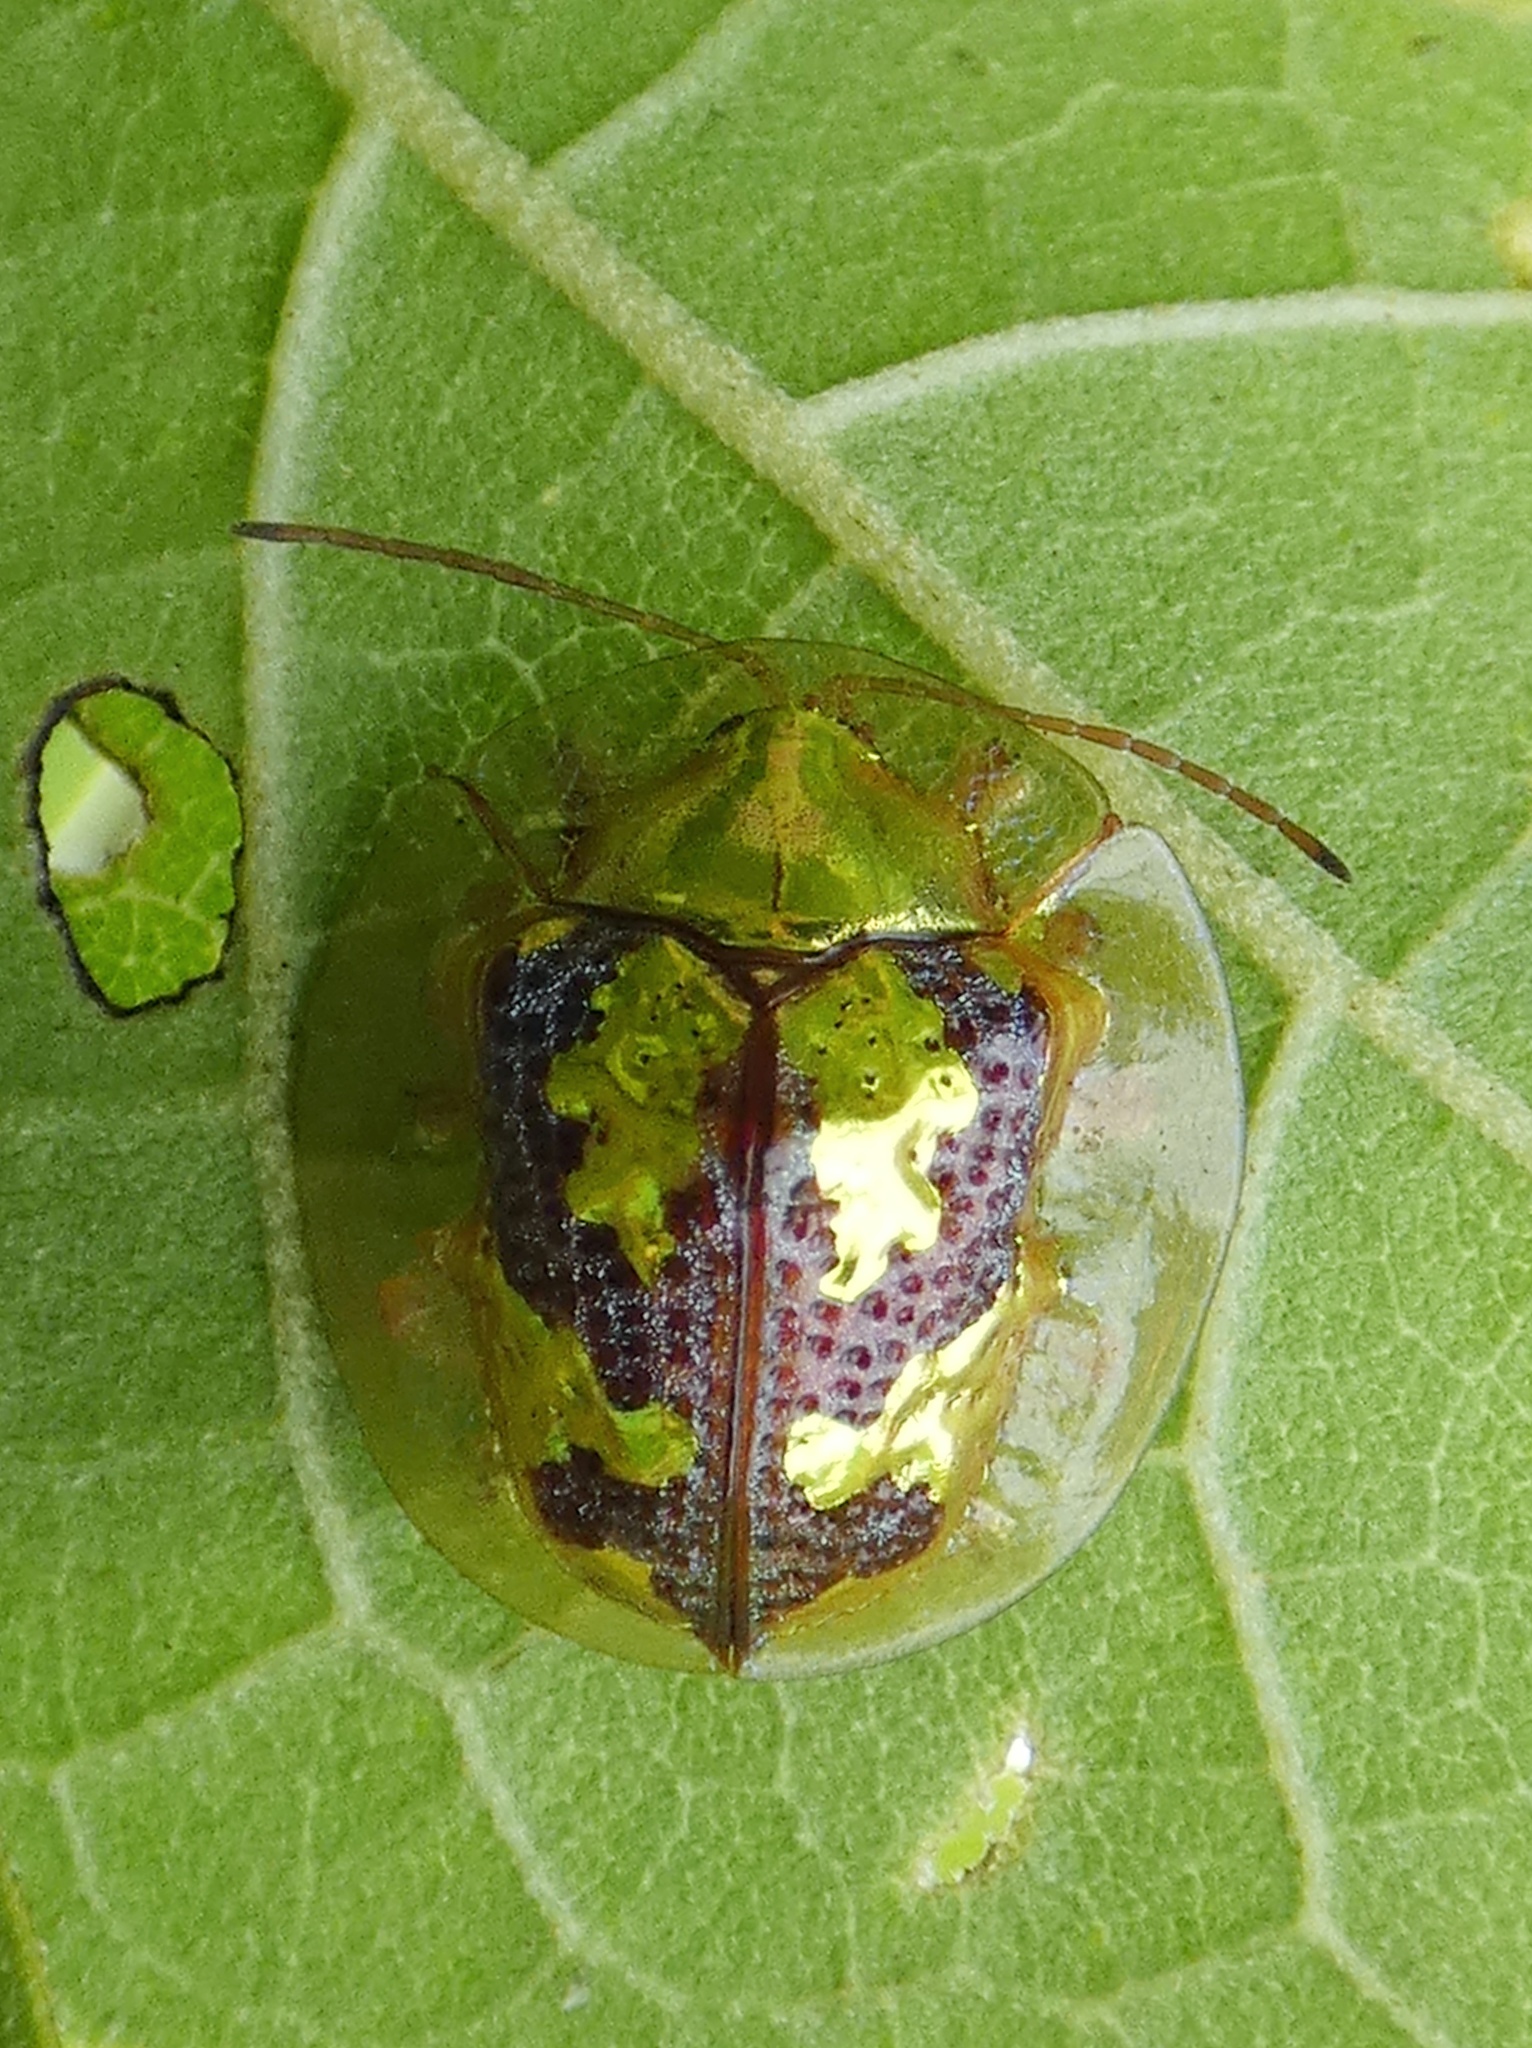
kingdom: Animalia
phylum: Arthropoda
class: Insecta
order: Coleoptera
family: Chrysomelidae
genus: Coptocycla
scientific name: Coptocycla leprosa
